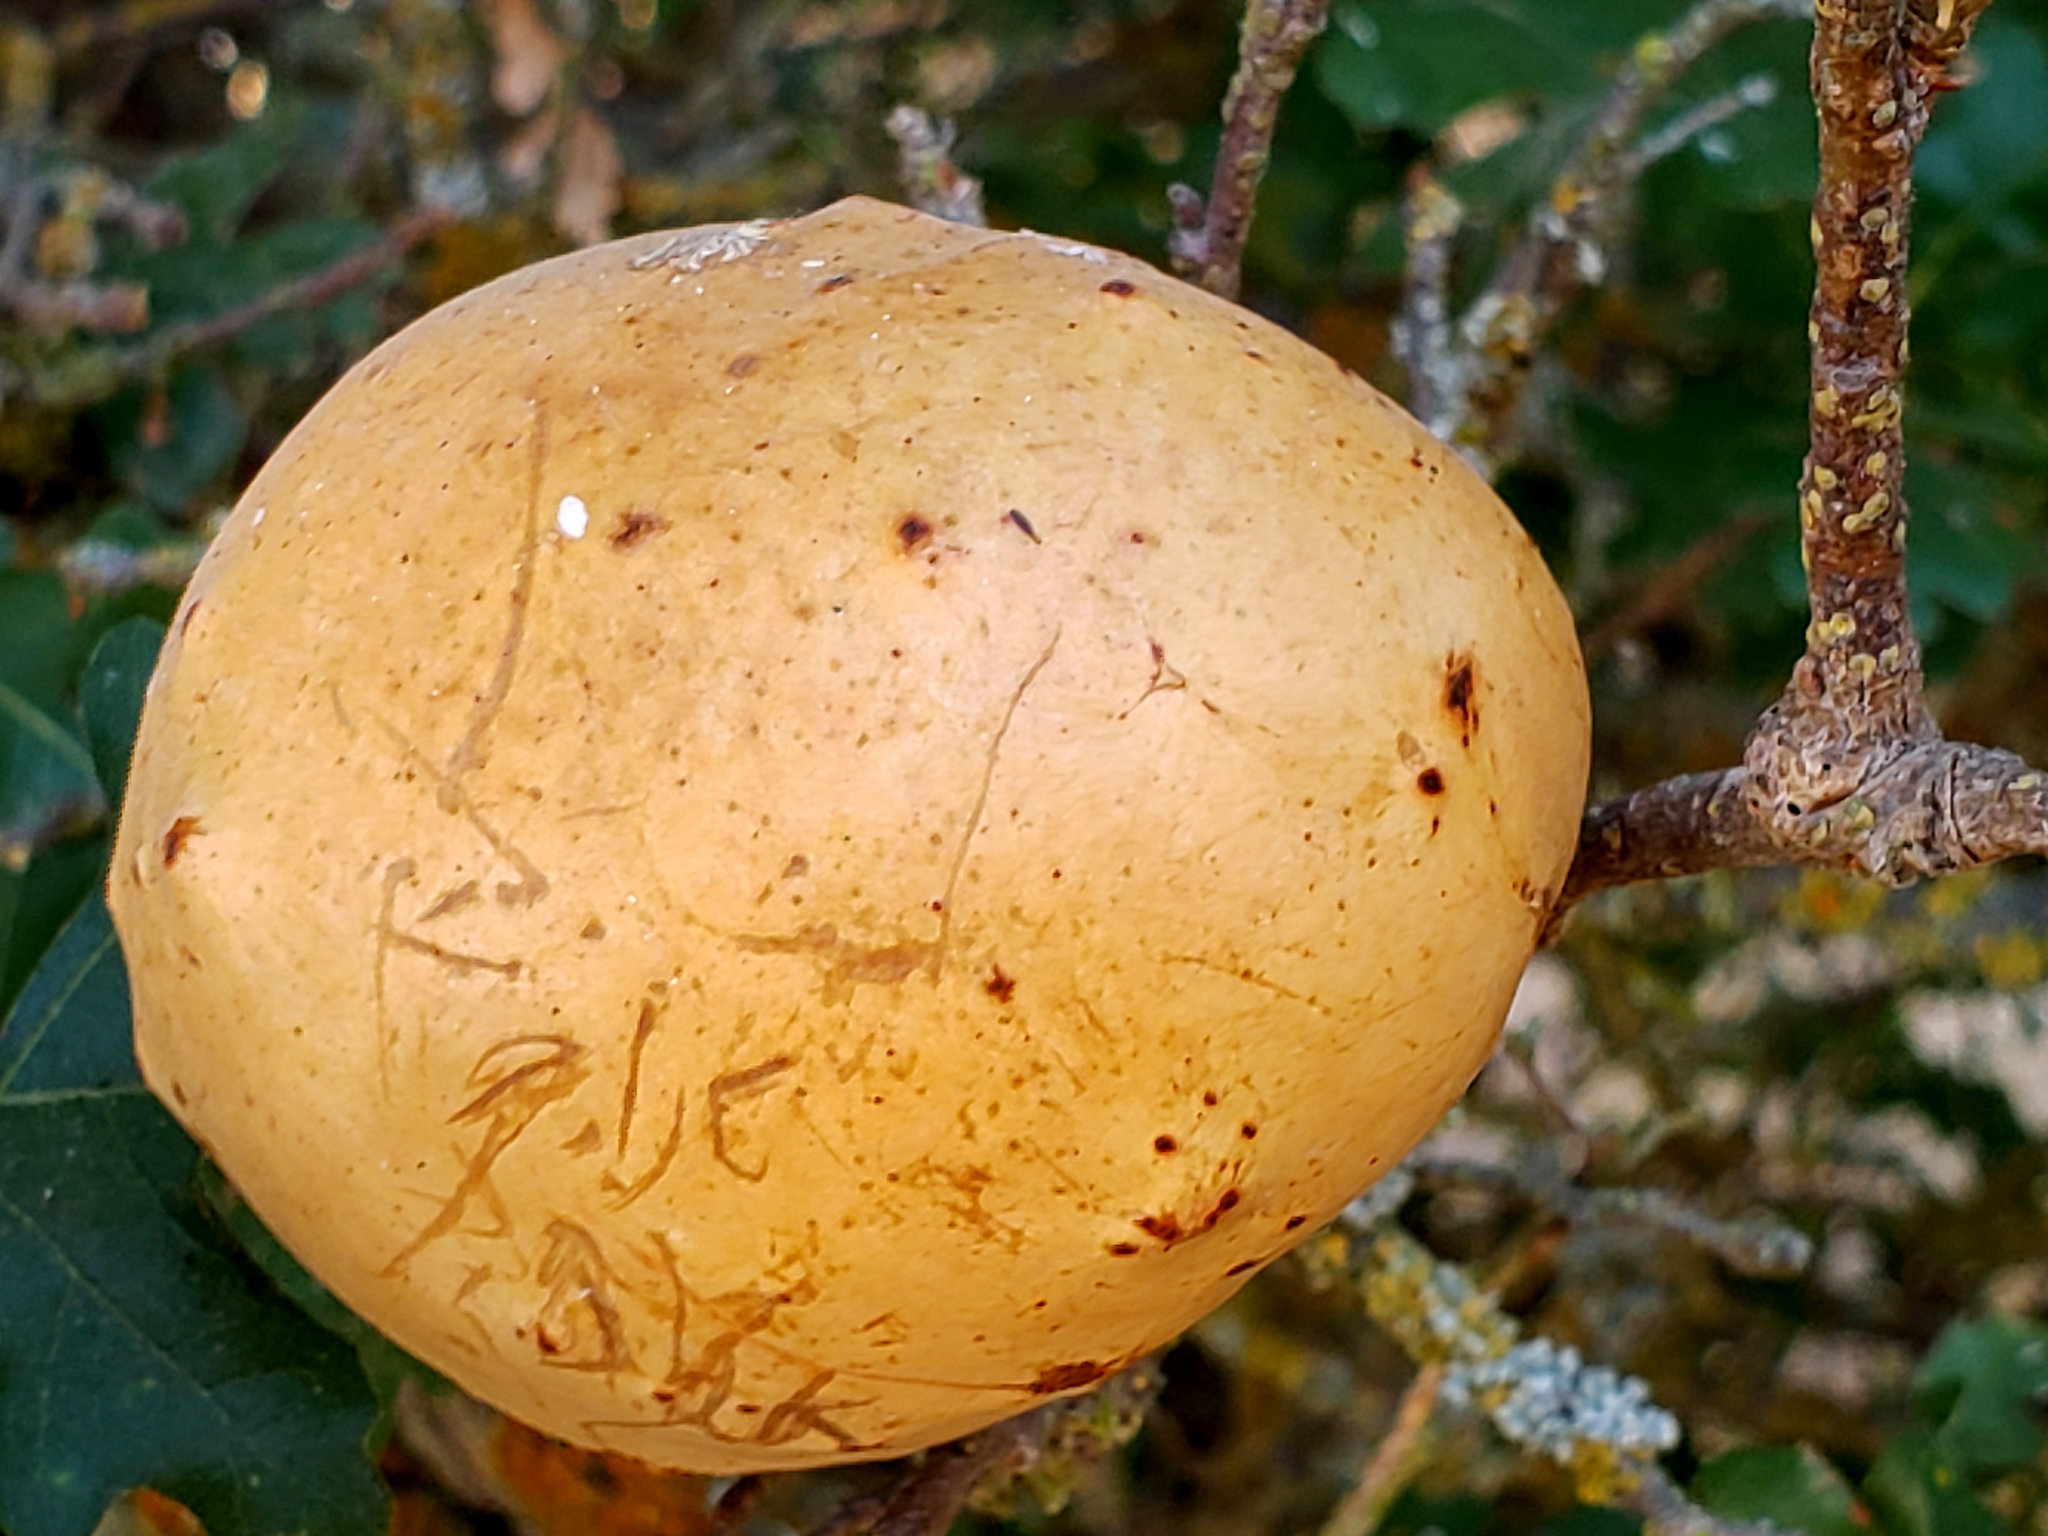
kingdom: Animalia
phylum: Arthropoda
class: Insecta
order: Hymenoptera
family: Cynipidae
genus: Andricus
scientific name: Andricus quercuscalifornicus
